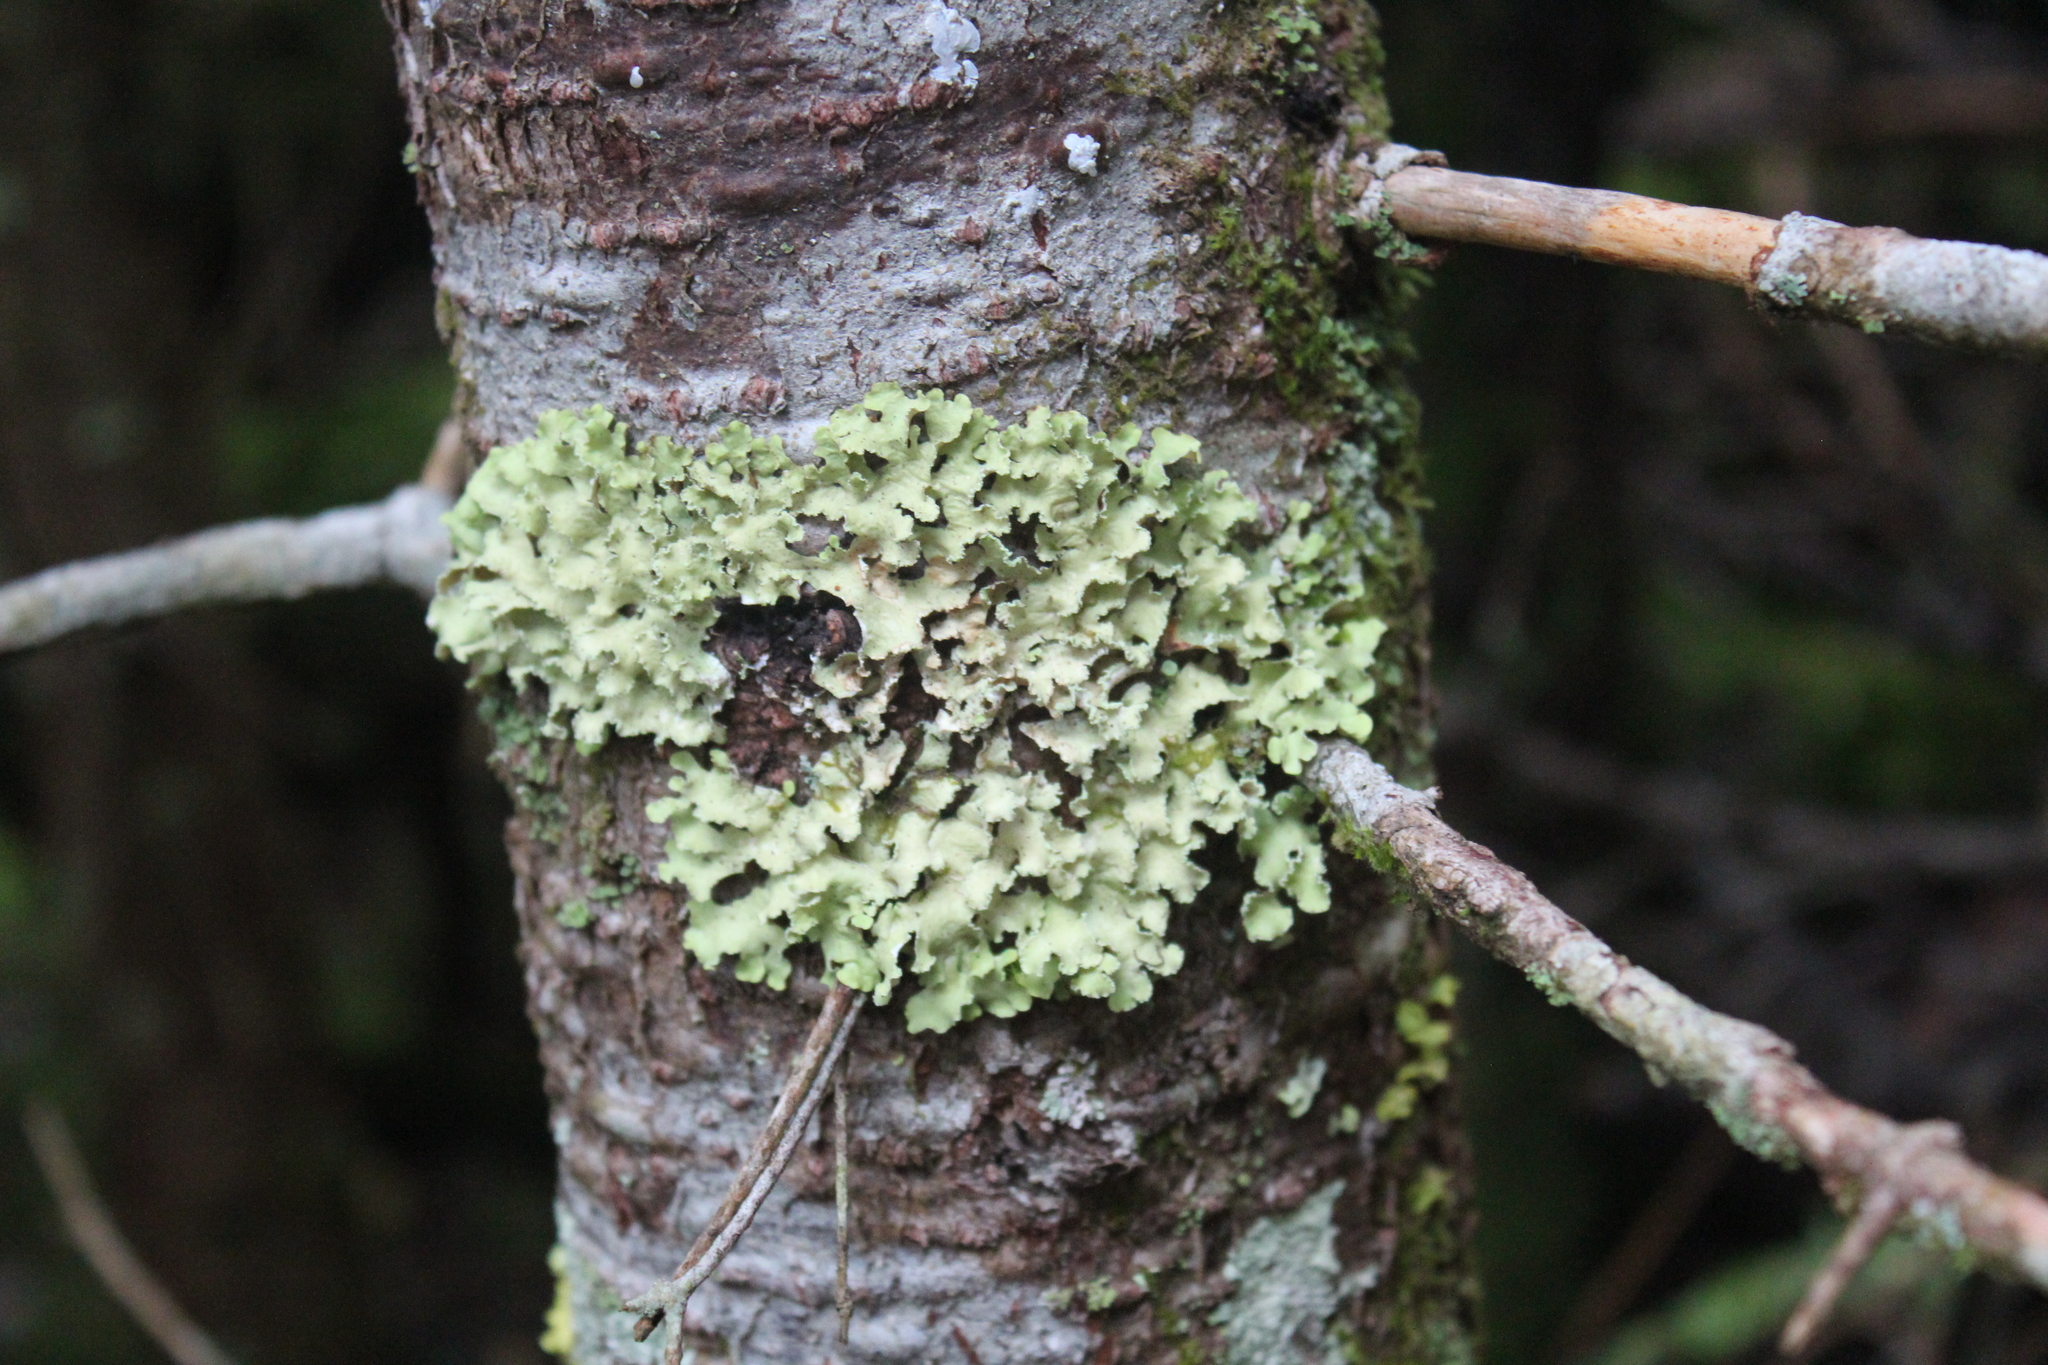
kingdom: Fungi
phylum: Ascomycota
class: Lecanoromycetes
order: Lecanorales
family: Parmeliaceae
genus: Usnocetraria
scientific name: Usnocetraria oakesiana
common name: Yellow ribbon lichen
